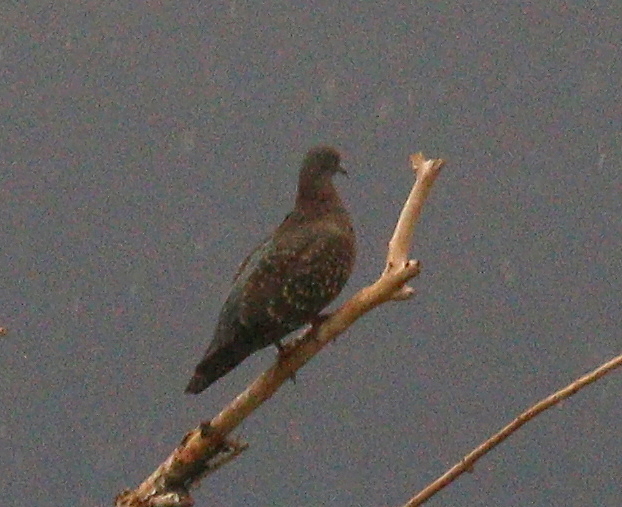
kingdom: Animalia
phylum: Chordata
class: Aves
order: Columbiformes
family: Columbidae
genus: Patagioenas
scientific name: Patagioenas maculosa
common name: Spot-winged pigeon
